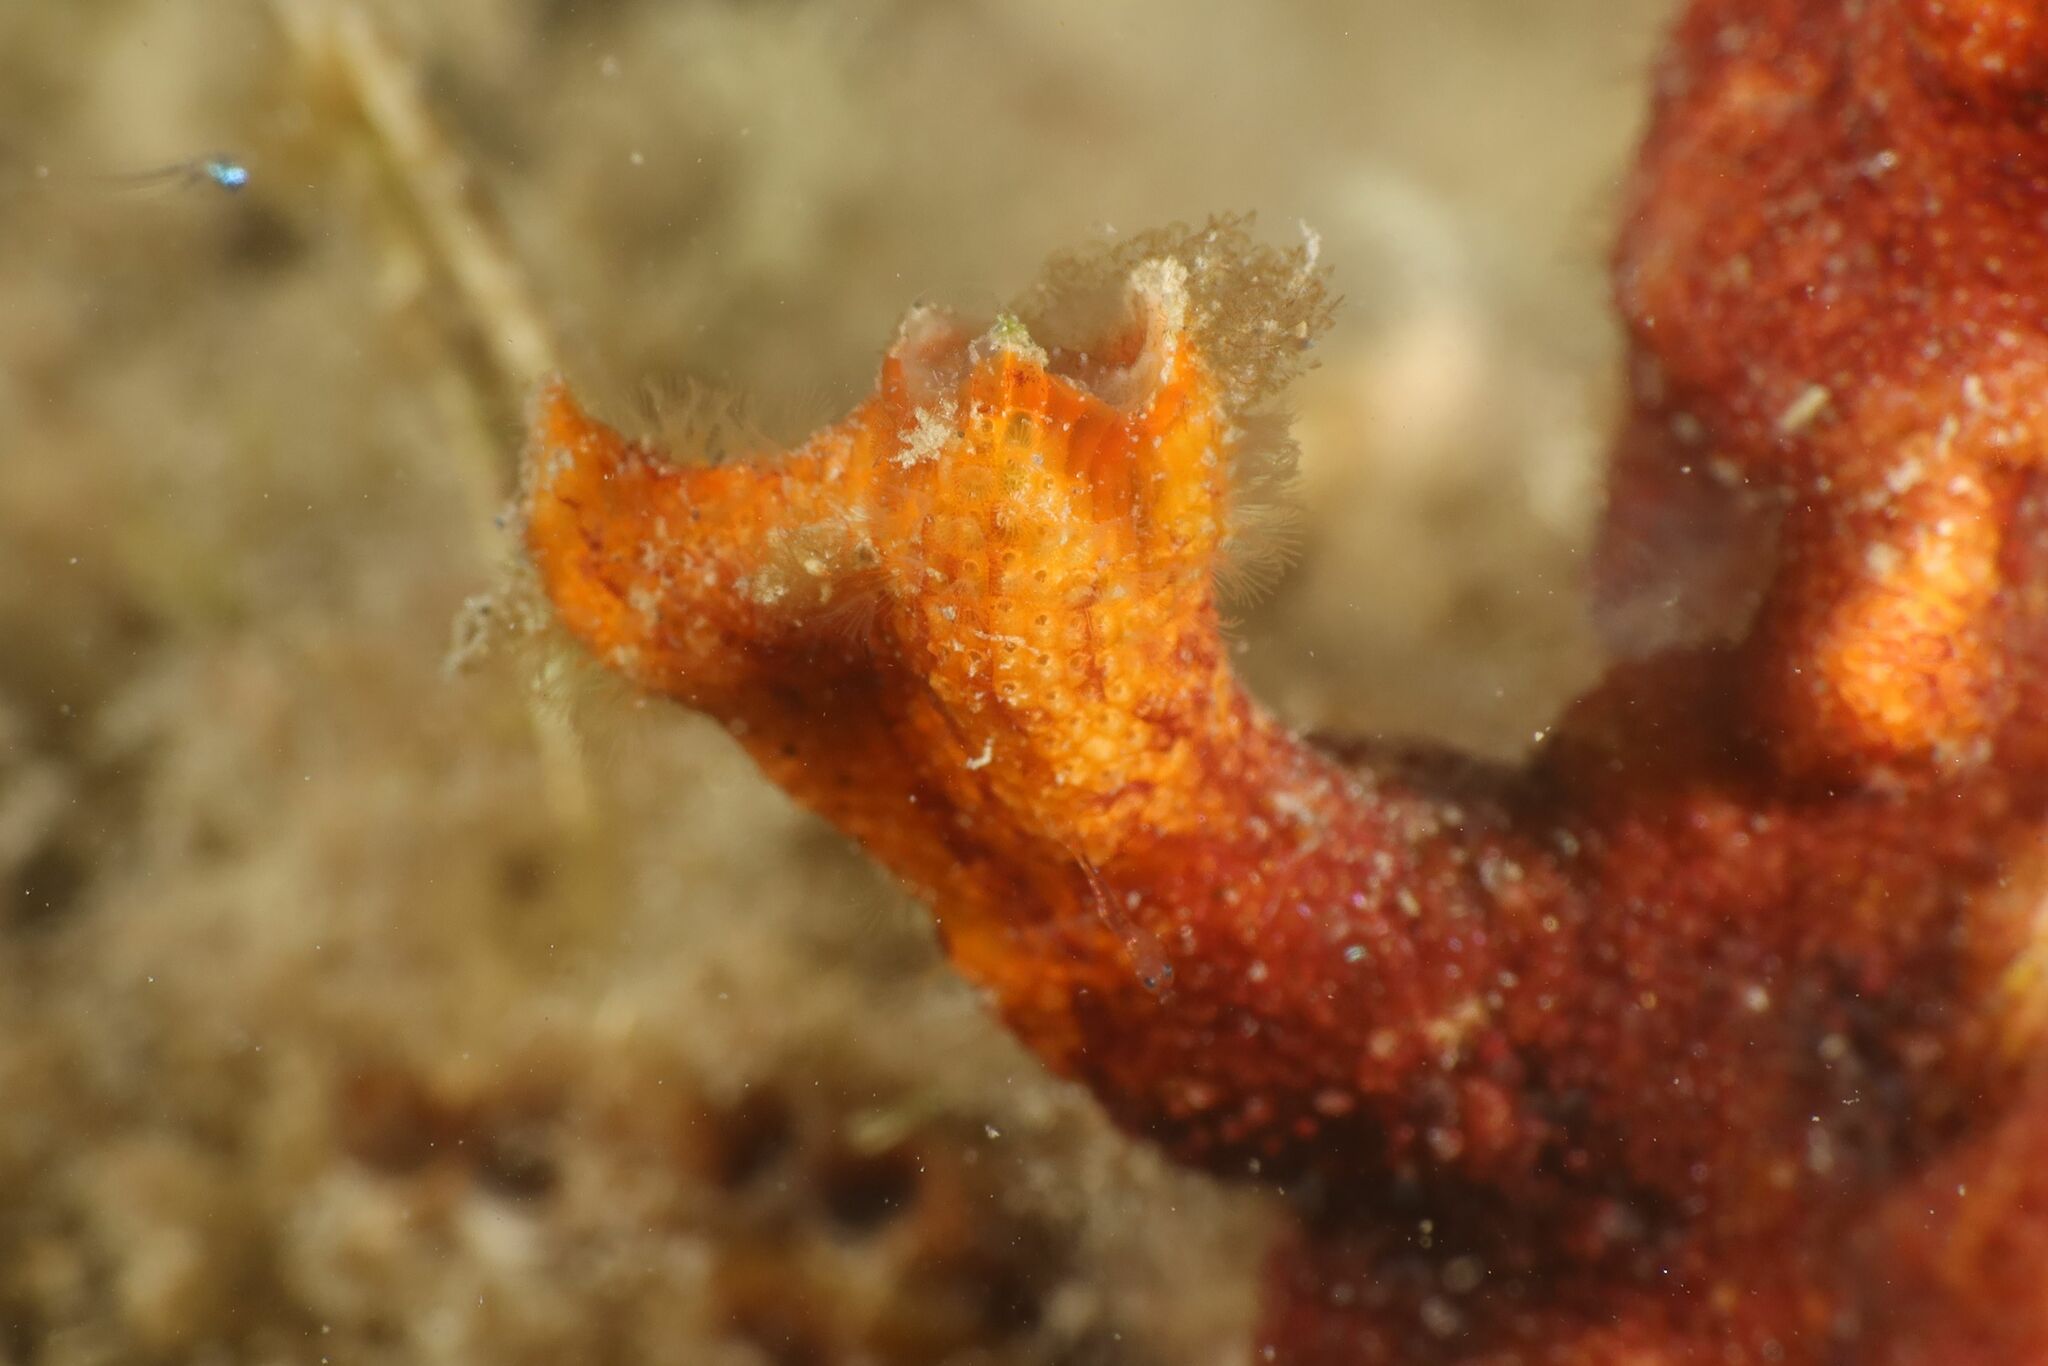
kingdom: Animalia
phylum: Bryozoa
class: Gymnolaemata
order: Cheilostomatida
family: Schizoporellidae
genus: Schizoporella
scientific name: Schizoporella errata
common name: Branching bryozoan
